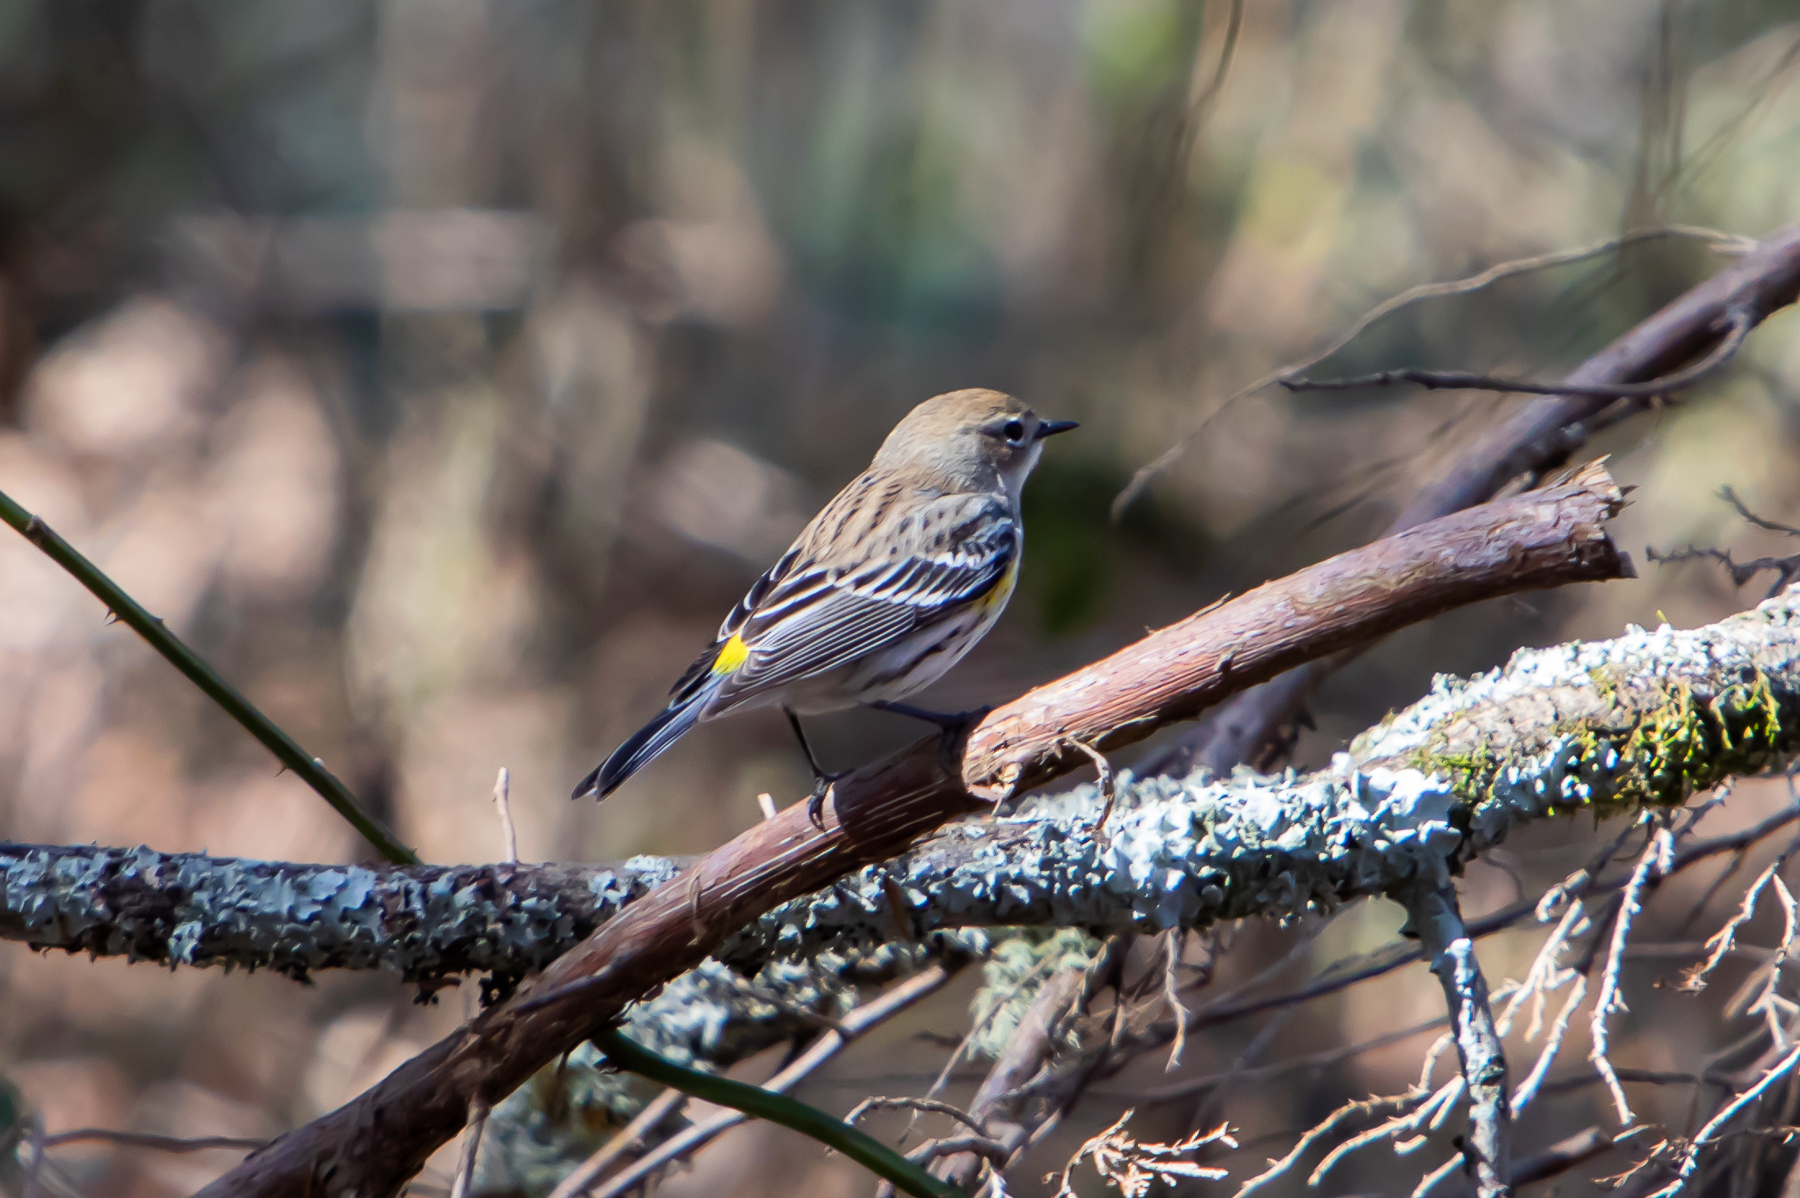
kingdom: Animalia
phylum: Chordata
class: Aves
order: Passeriformes
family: Parulidae
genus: Setophaga
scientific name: Setophaga coronata
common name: Myrtle warbler
